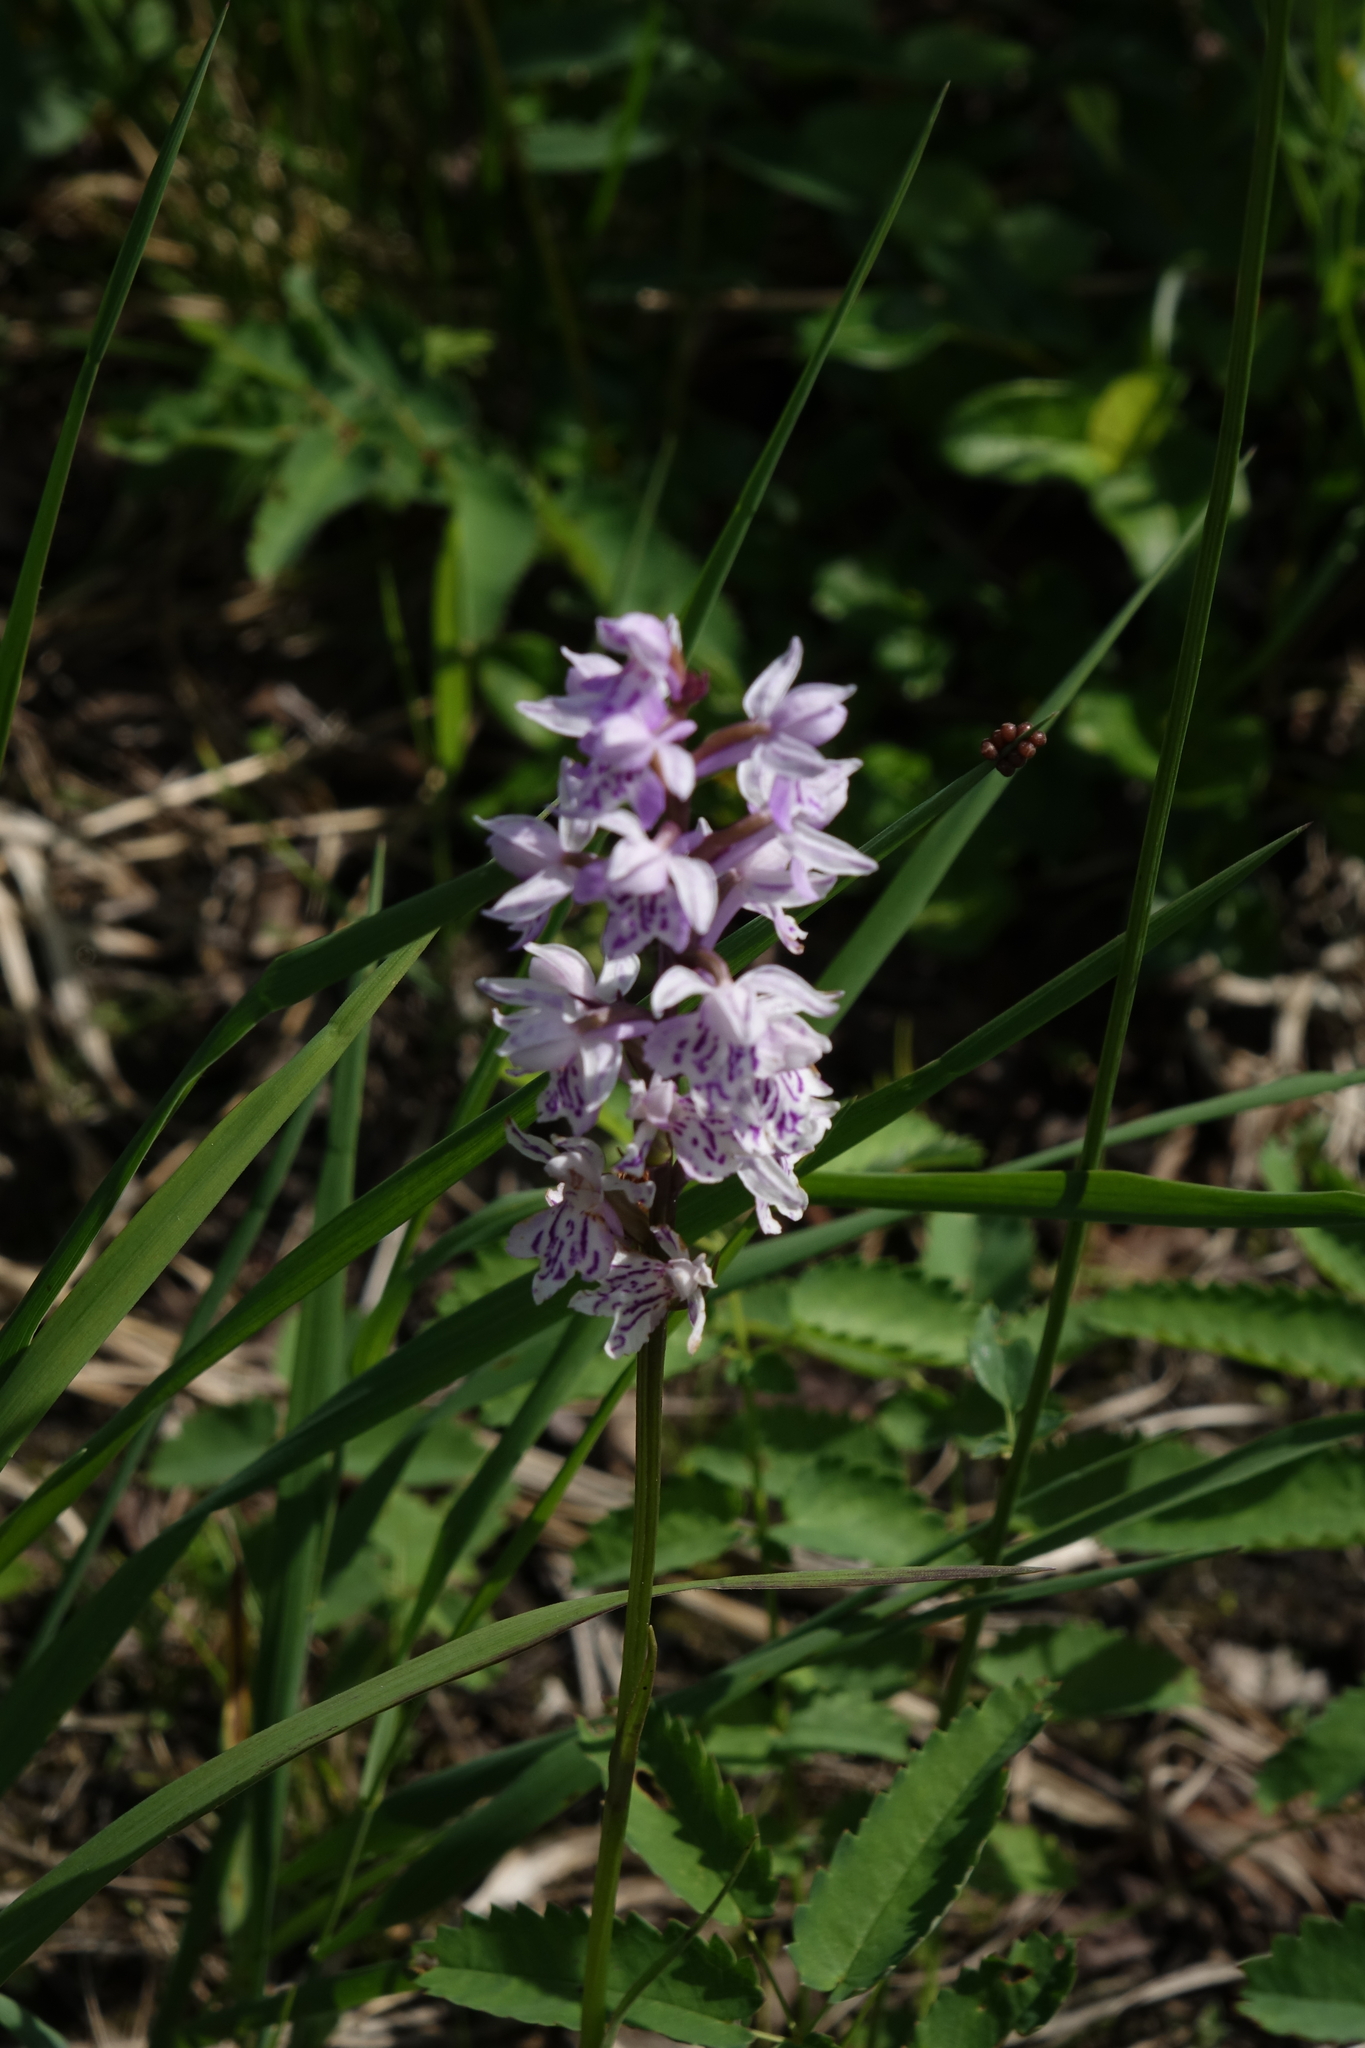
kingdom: Plantae
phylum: Tracheophyta
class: Liliopsida
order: Asparagales
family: Orchidaceae
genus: Dactylorhiza
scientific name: Dactylorhiza maculata
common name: Heath spotted-orchid
